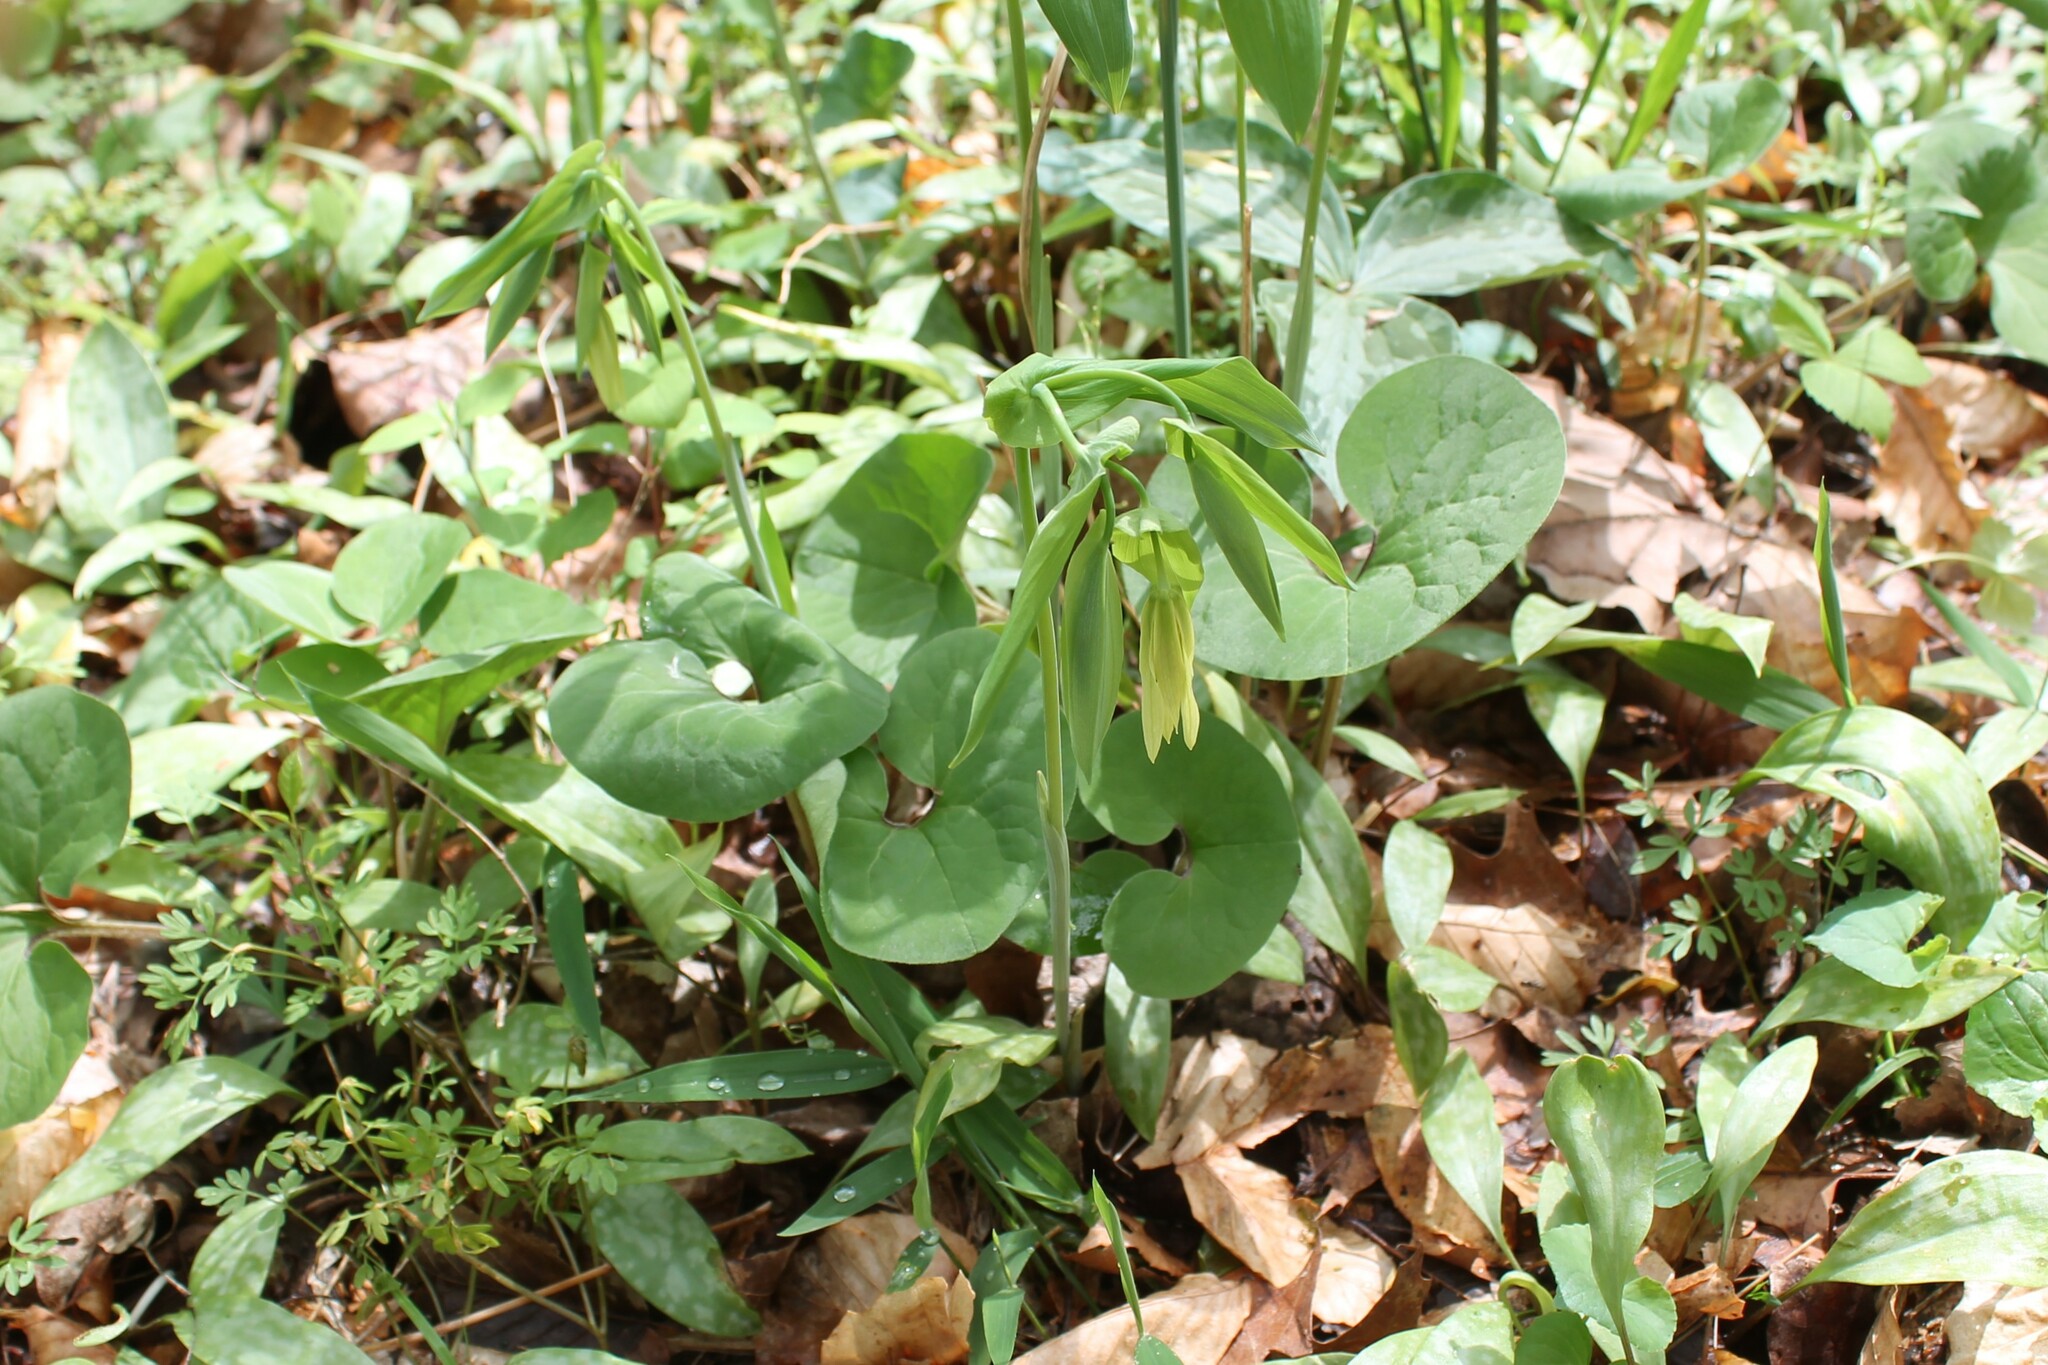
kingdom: Plantae
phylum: Tracheophyta
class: Liliopsida
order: Liliales
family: Colchicaceae
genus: Uvularia
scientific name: Uvularia grandiflora
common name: Bellwort
